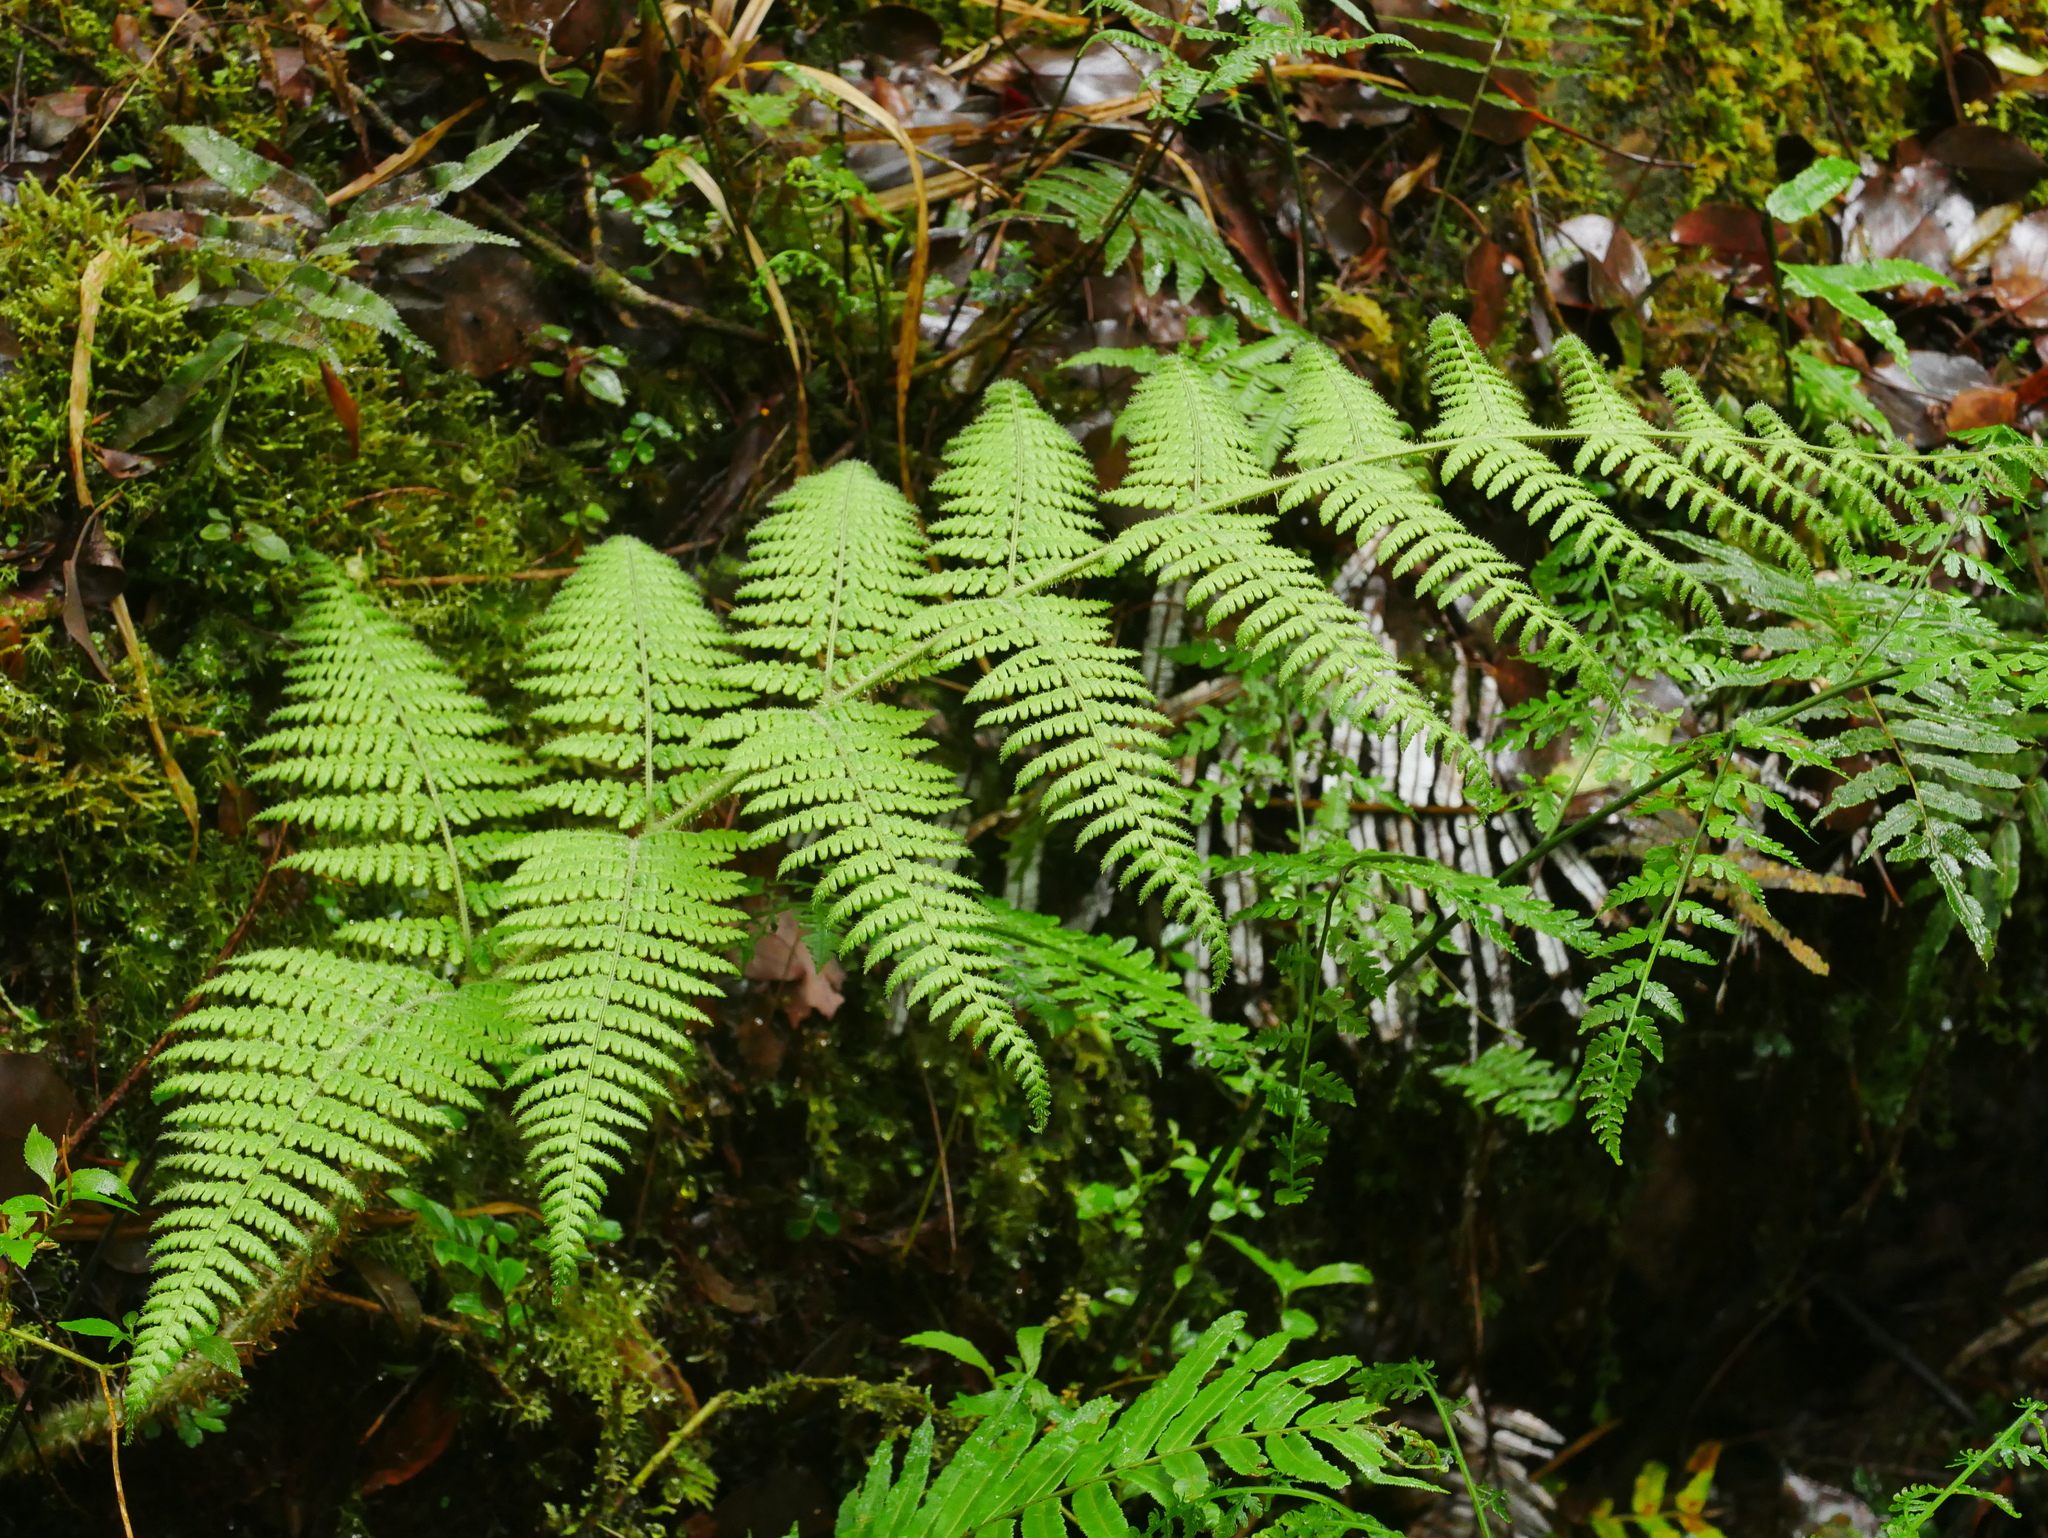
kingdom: Plantae
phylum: Tracheophyta
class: Polypodiopsida
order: Polypodiales
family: Dryopteridaceae
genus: Dryopteris
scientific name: Dryopteris peranema
